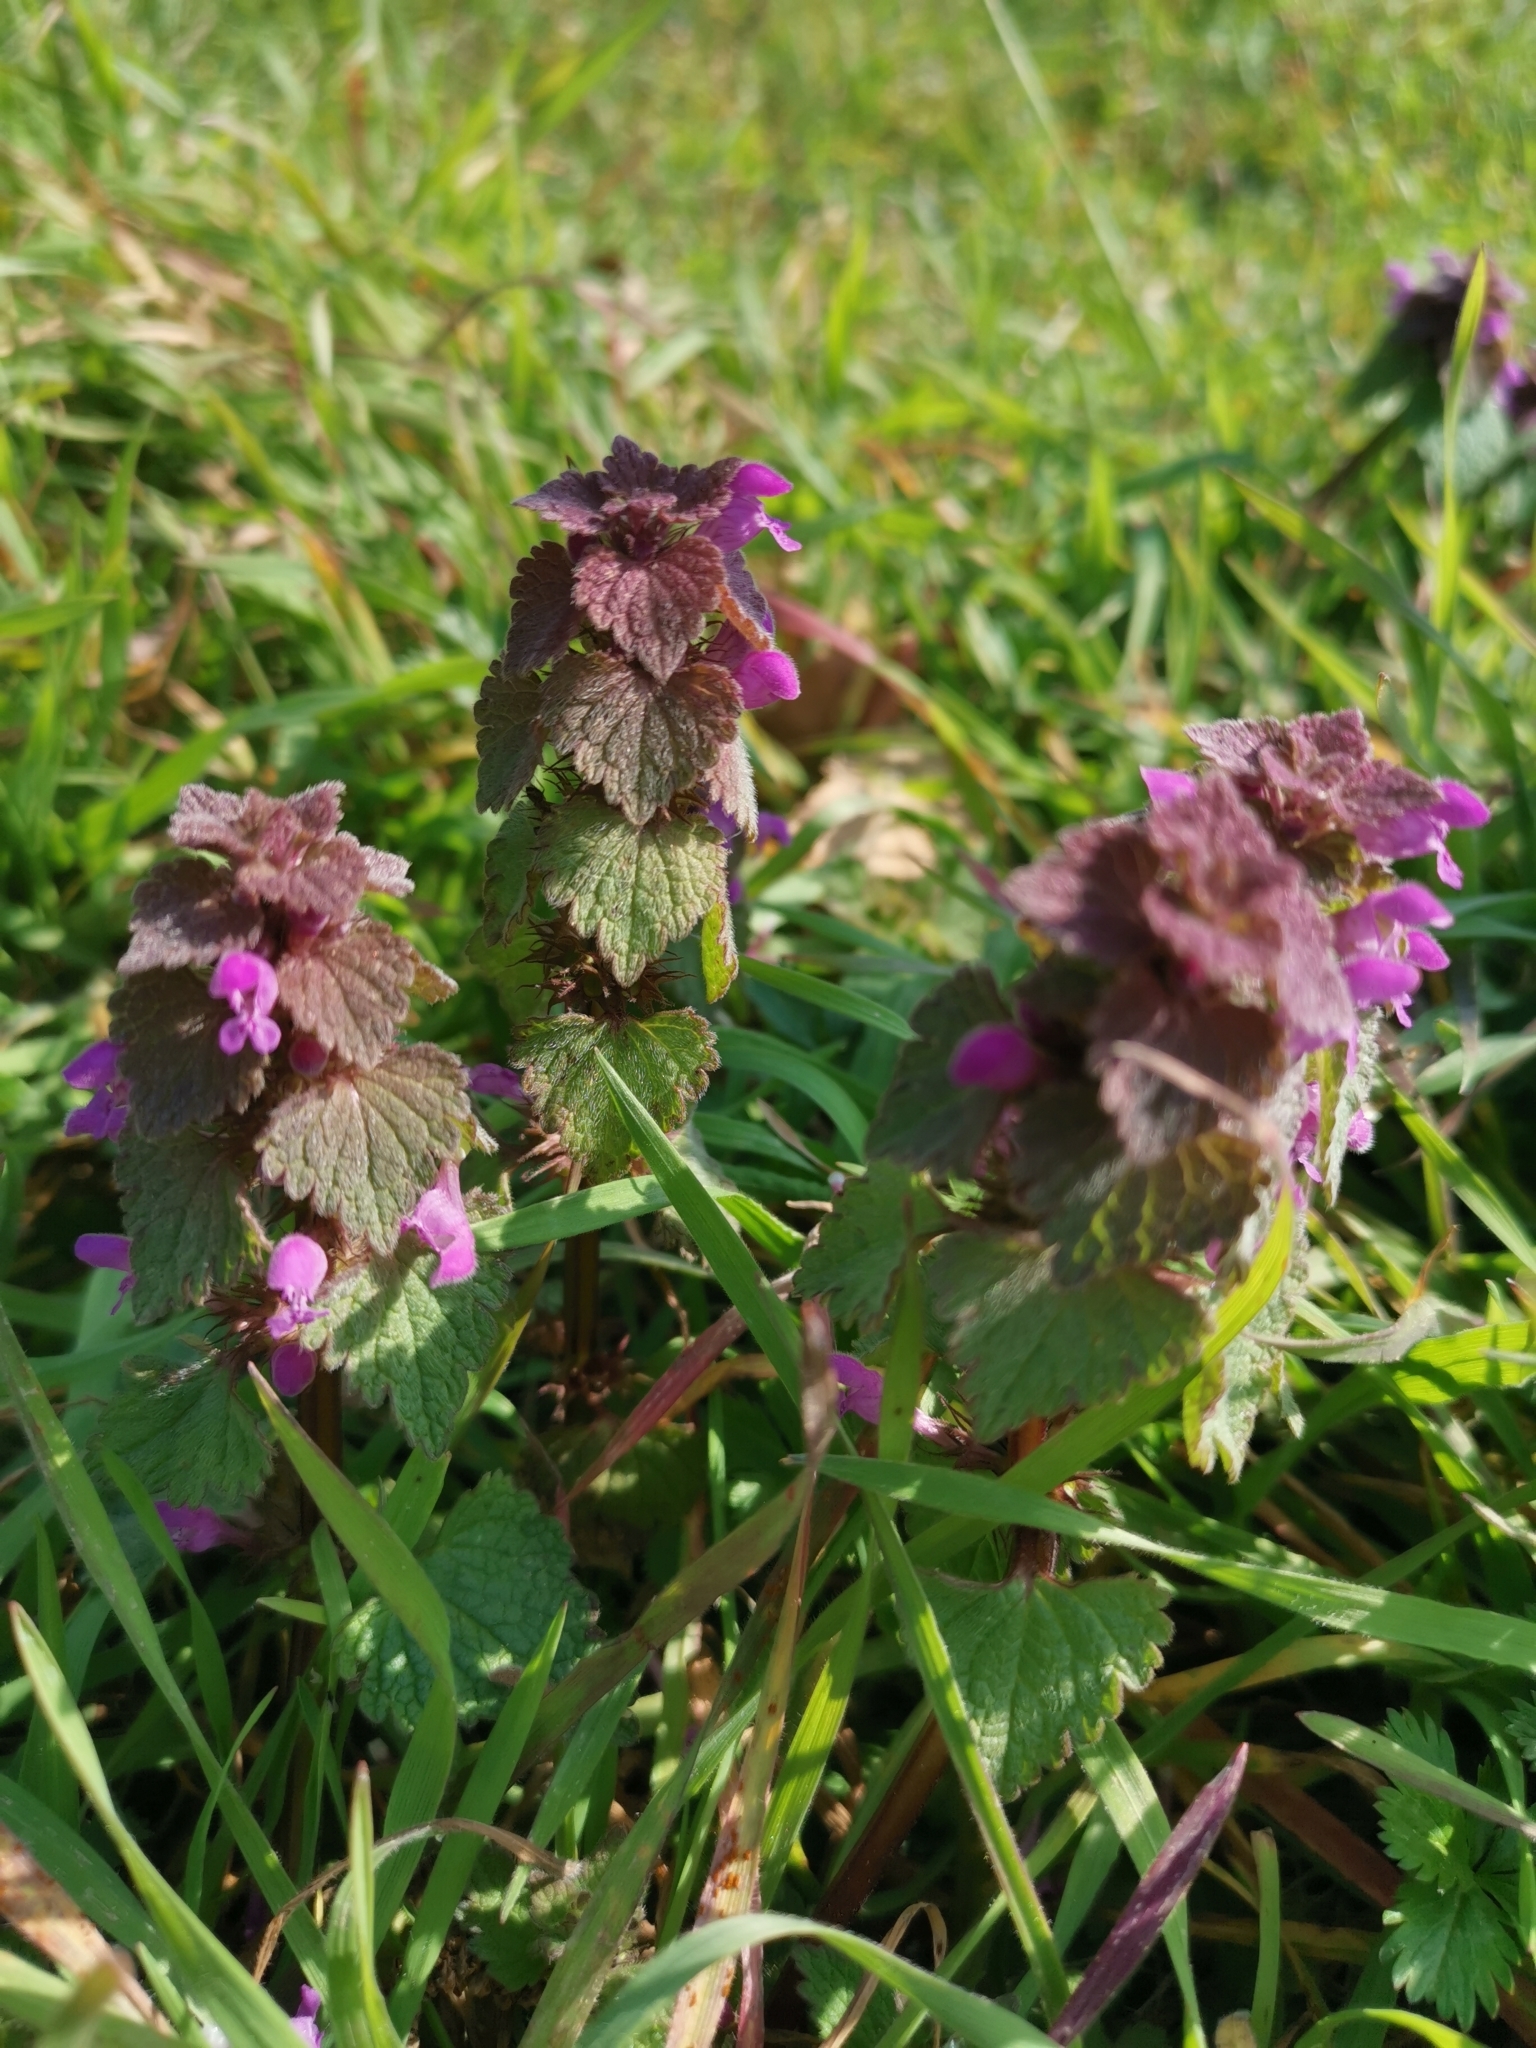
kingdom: Plantae
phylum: Tracheophyta
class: Magnoliopsida
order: Lamiales
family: Lamiaceae
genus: Lamium
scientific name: Lamium purpureum
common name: Red dead-nettle
